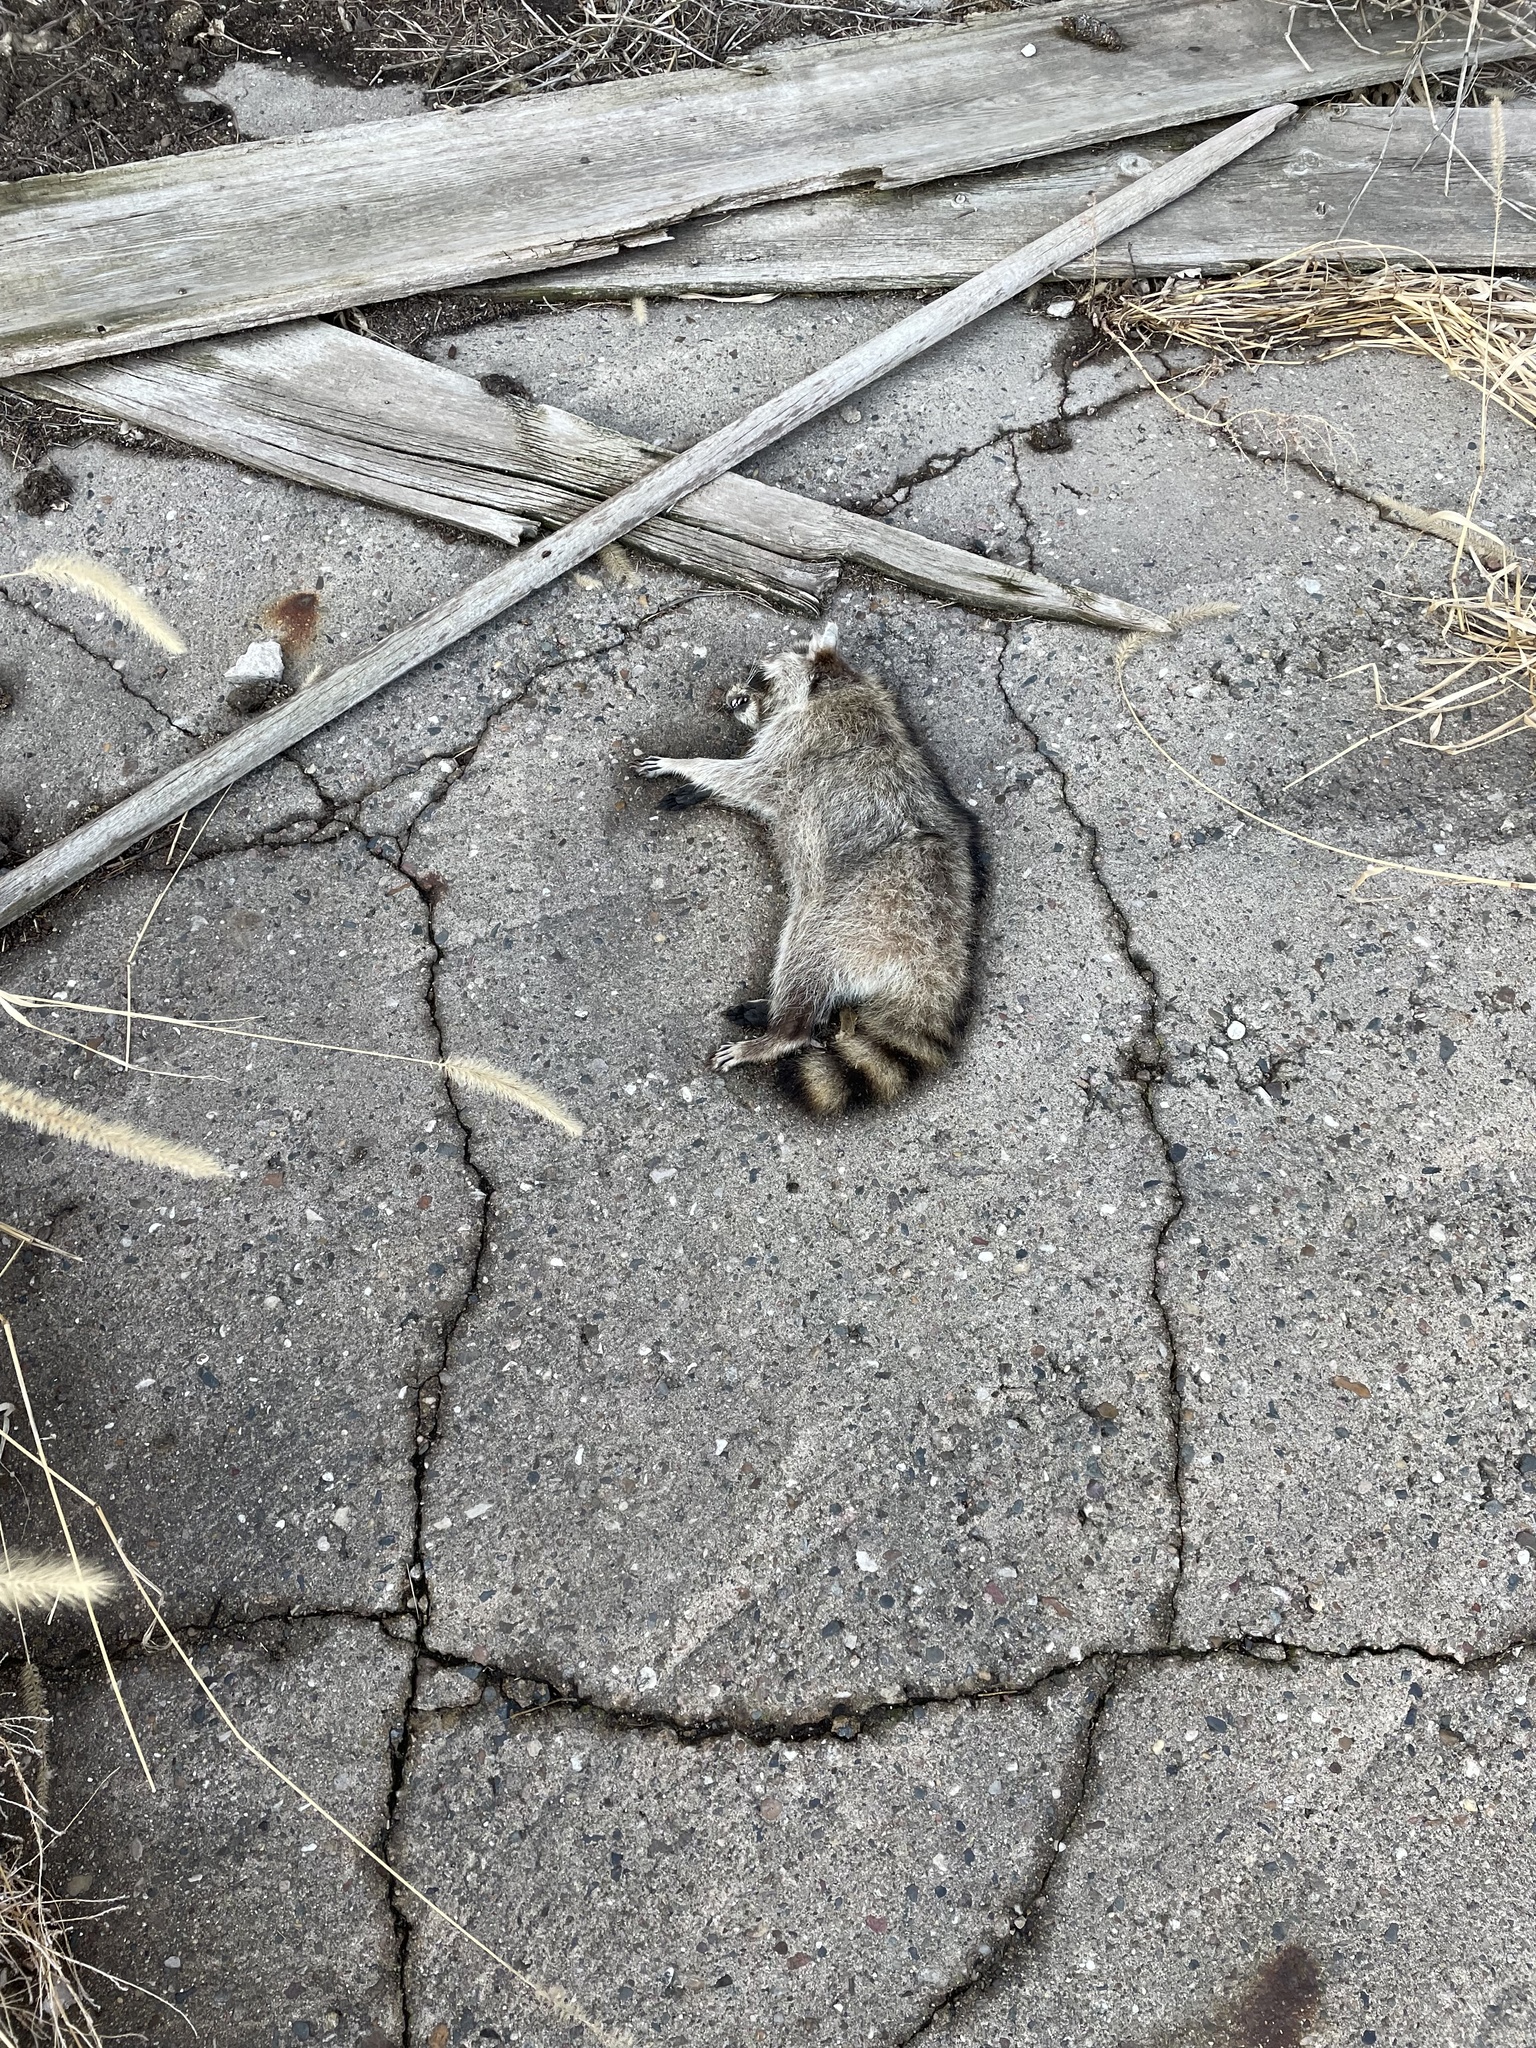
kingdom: Animalia
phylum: Chordata
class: Mammalia
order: Carnivora
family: Procyonidae
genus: Procyon
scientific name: Procyon lotor
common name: Raccoon
